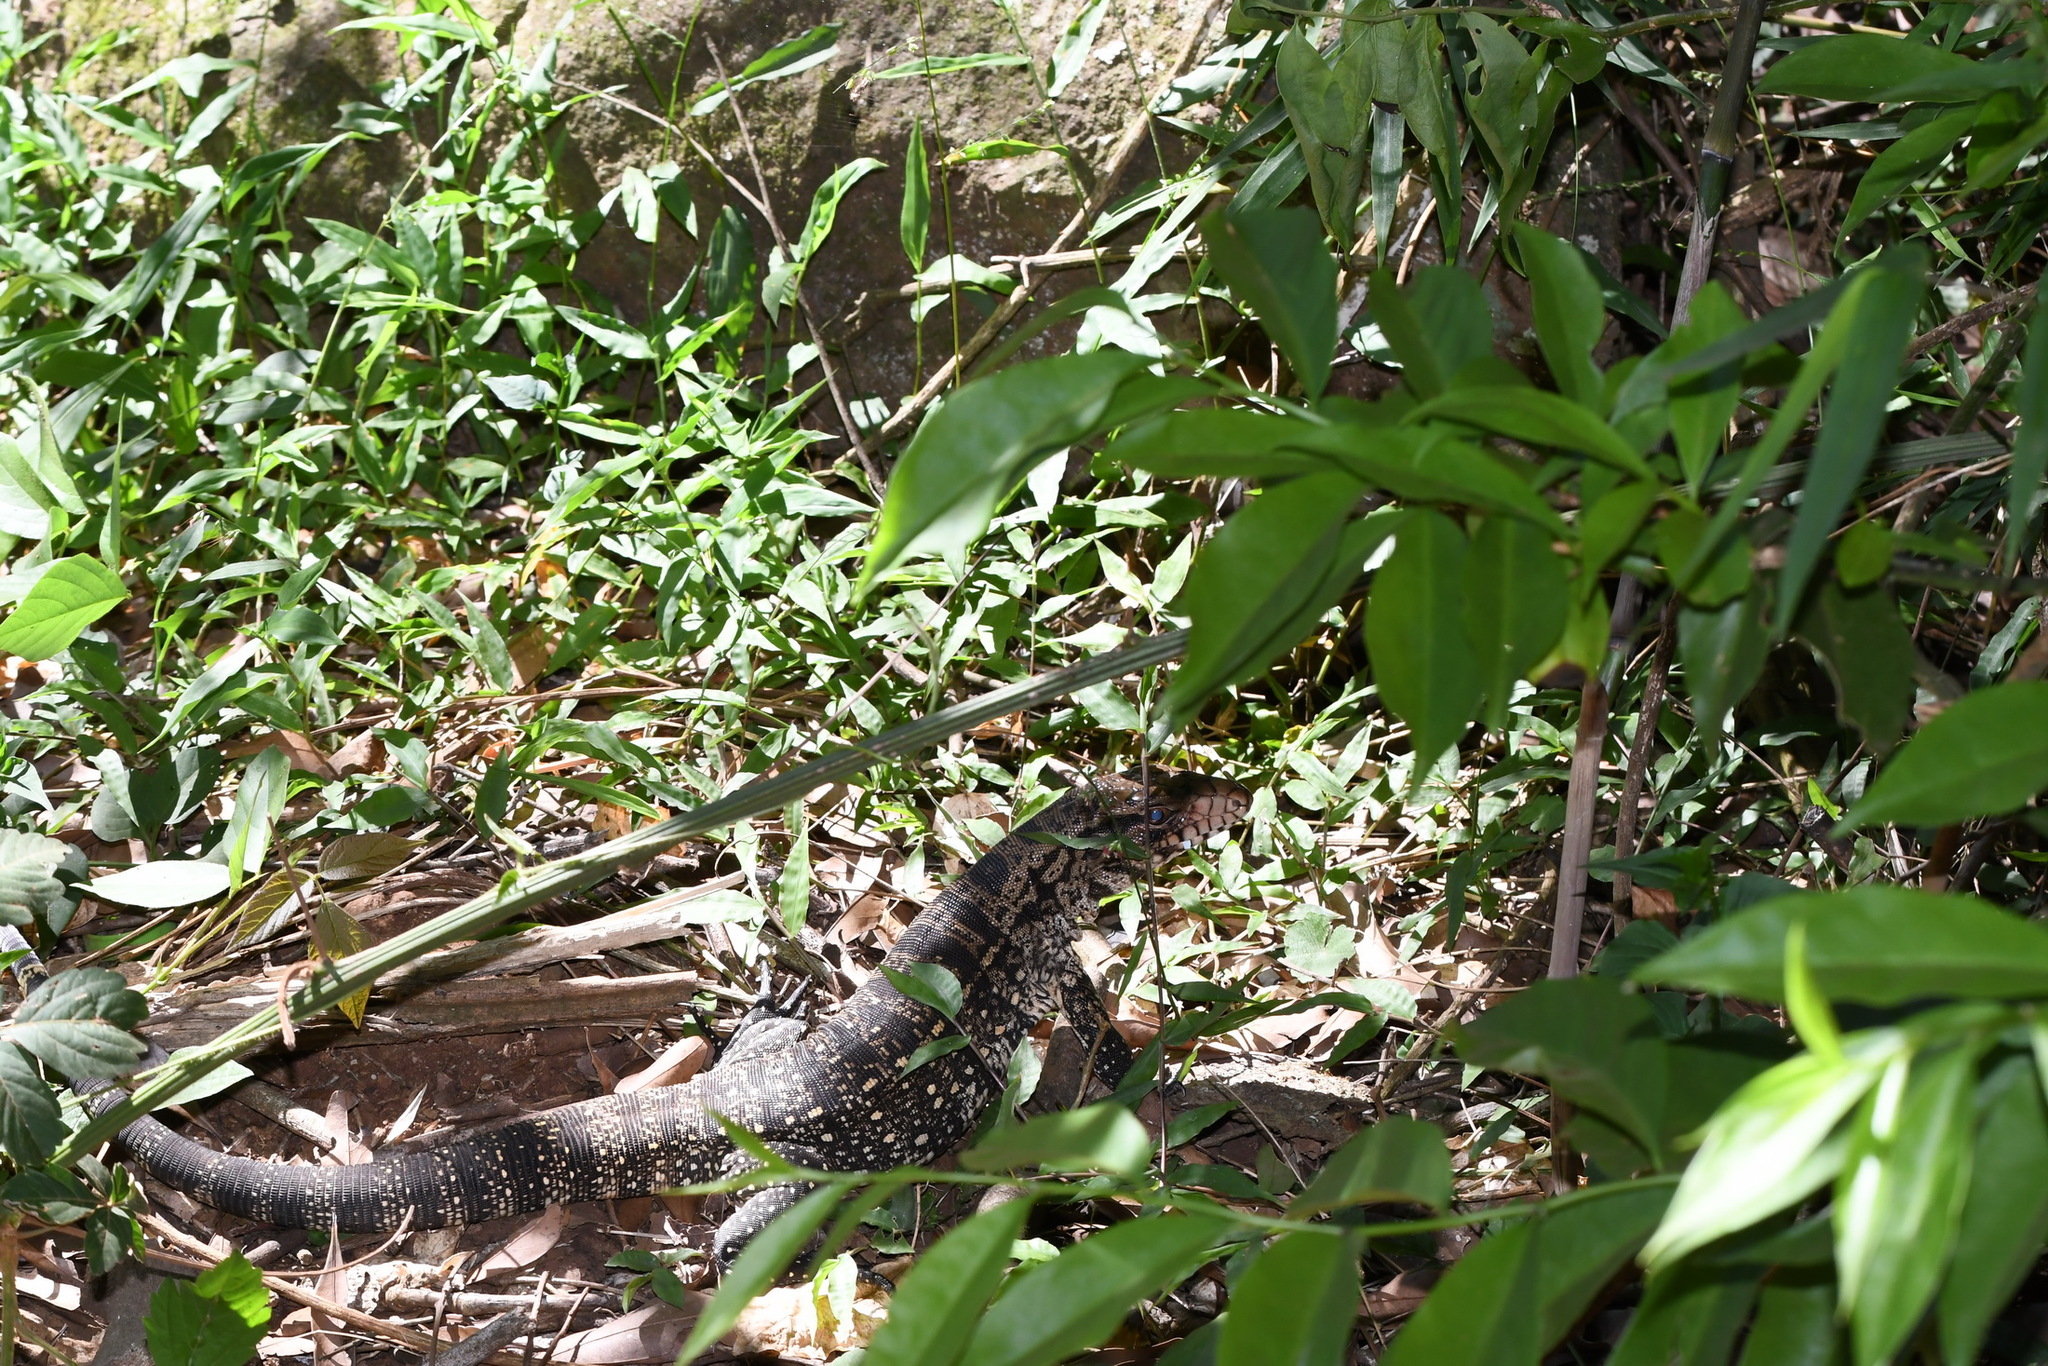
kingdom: Animalia
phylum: Chordata
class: Squamata
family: Teiidae
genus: Salvator
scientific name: Salvator merianae
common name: Argentine black and white tegu
